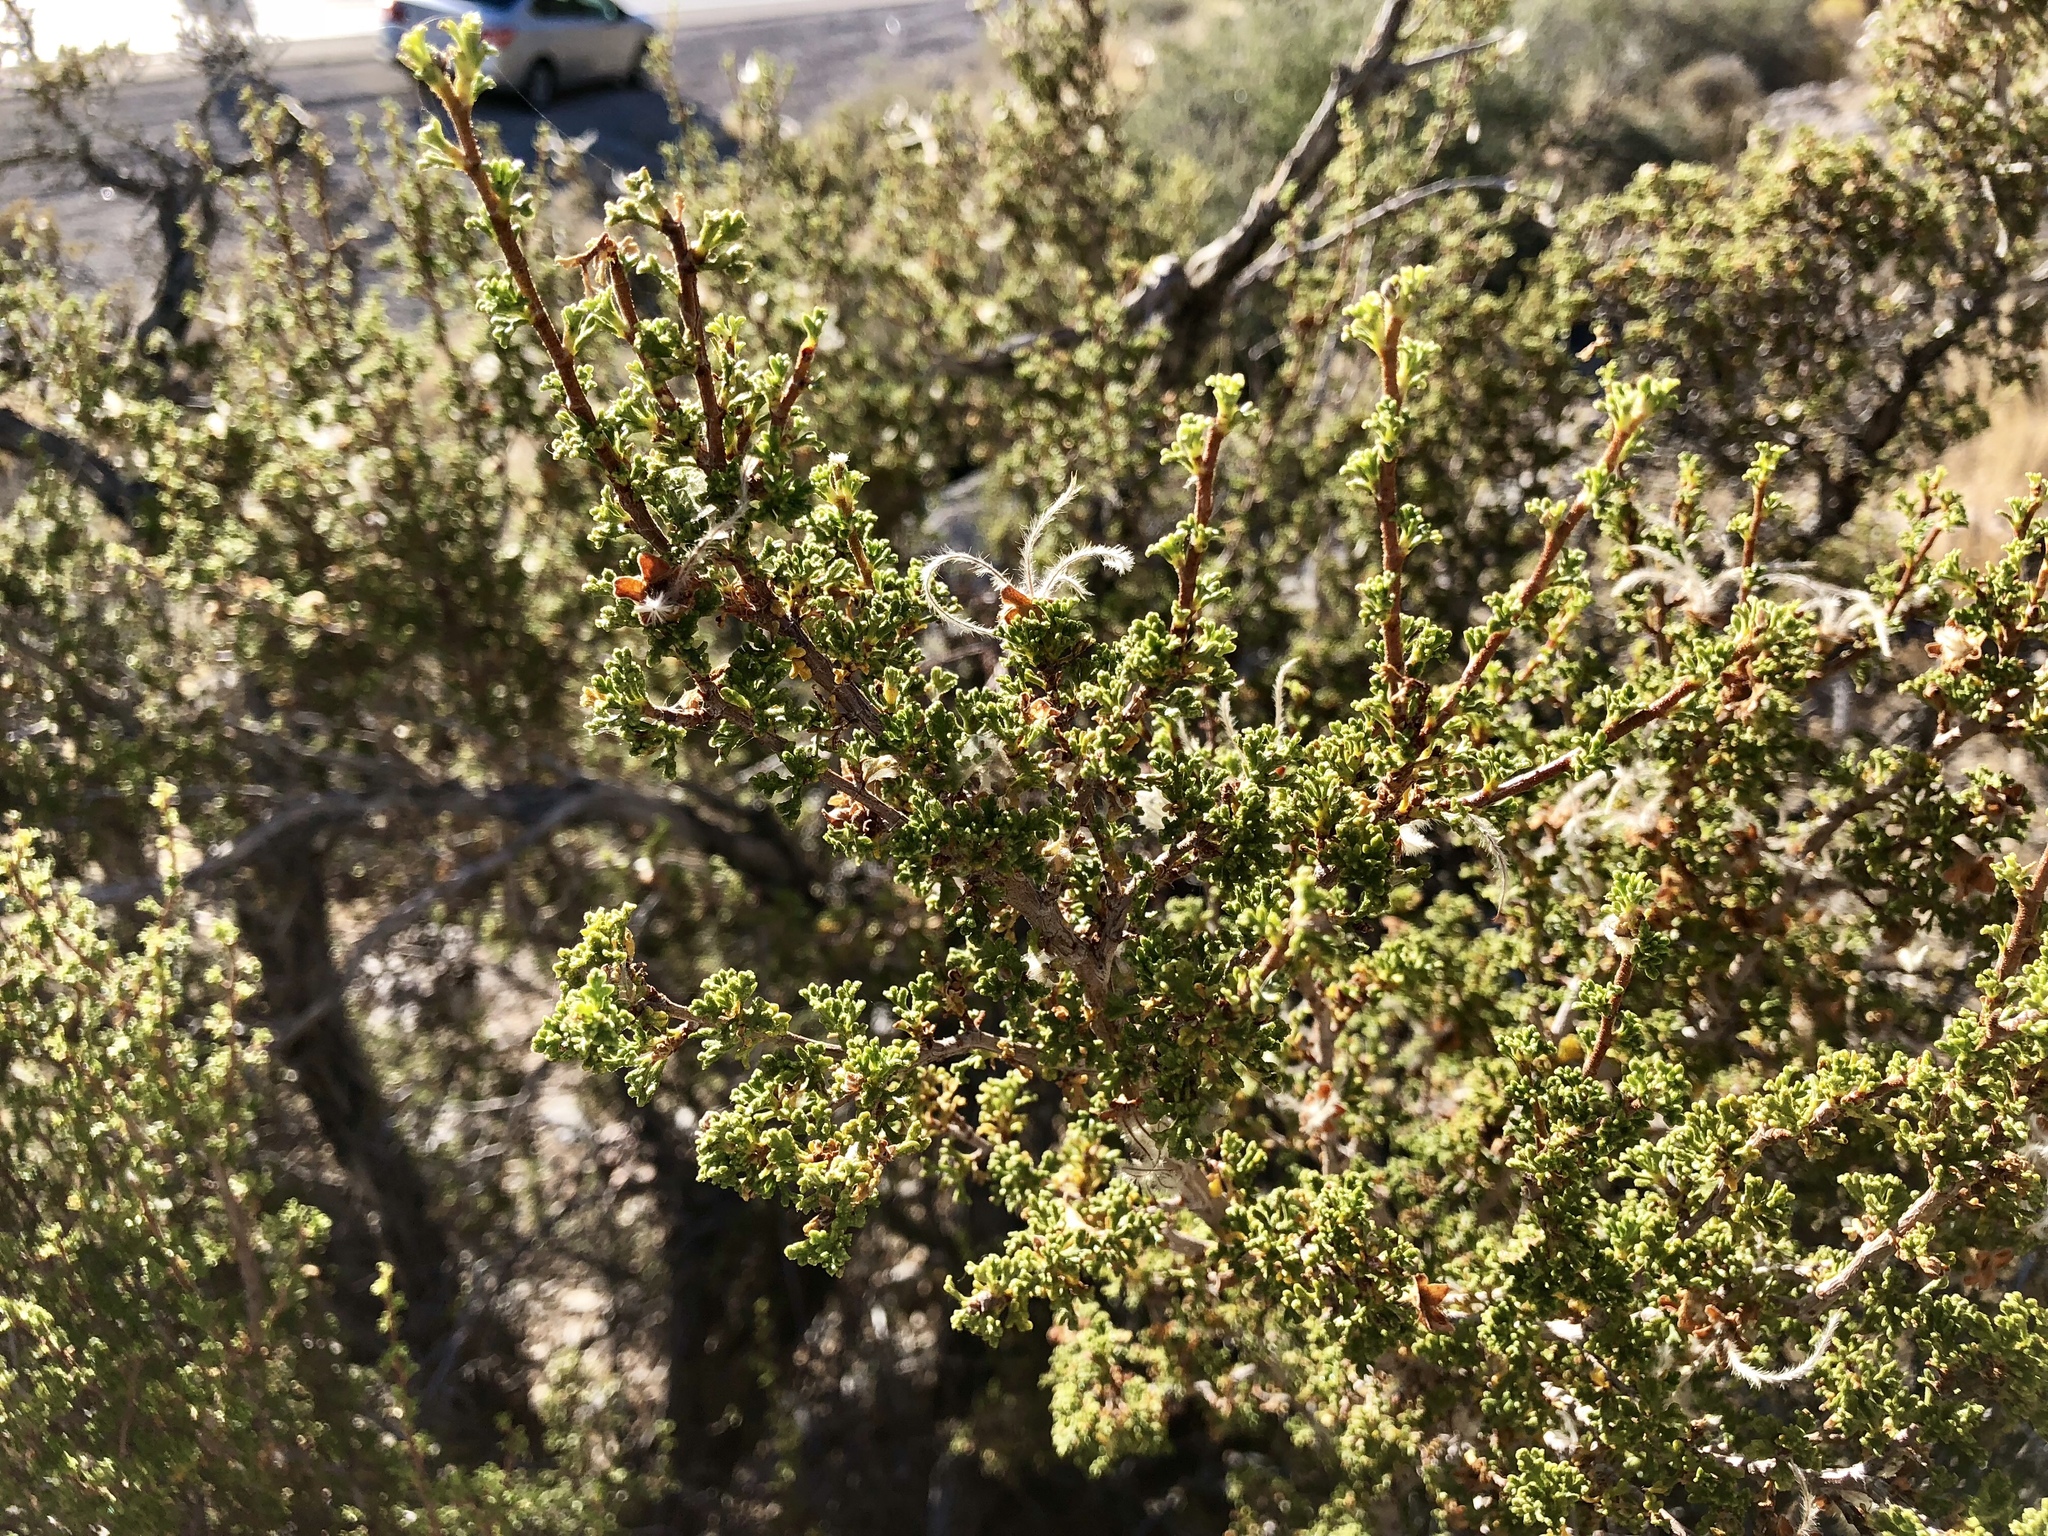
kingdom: Plantae
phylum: Tracheophyta
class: Magnoliopsida
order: Rosales
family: Rosaceae
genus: Purshia
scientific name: Purshia stansburiana
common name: Stansbury's cliffrose
